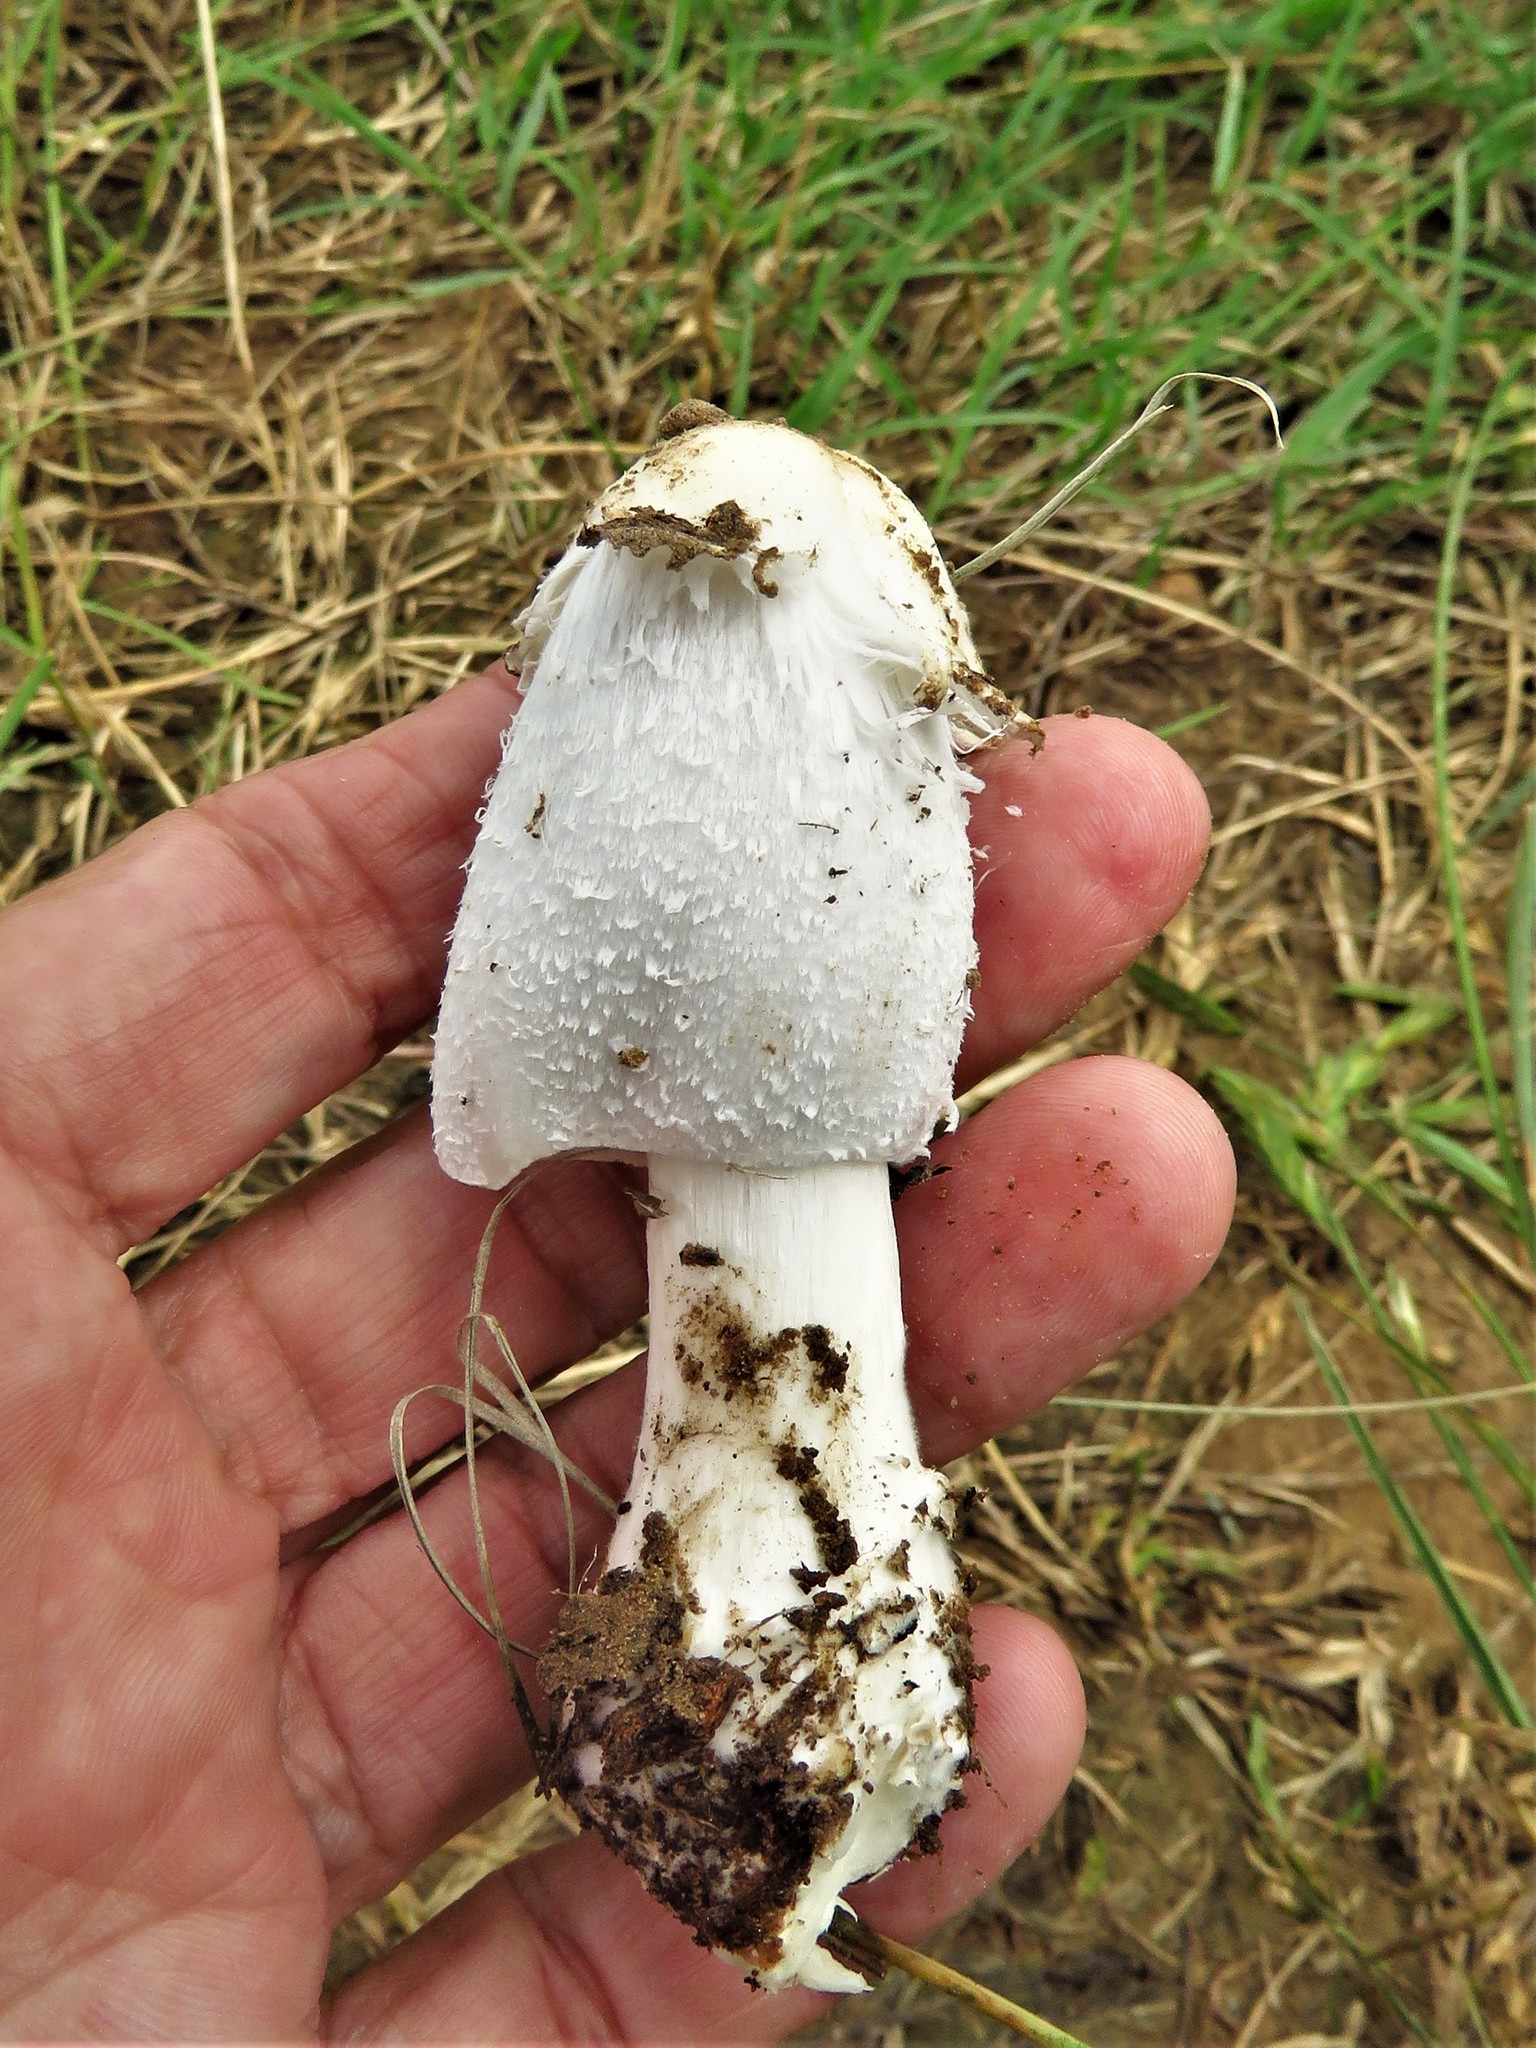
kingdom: Fungi
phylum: Basidiomycota
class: Agaricomycetes
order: Agaricales
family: Agaricaceae
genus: Coprinus
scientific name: Coprinus calyptratus
